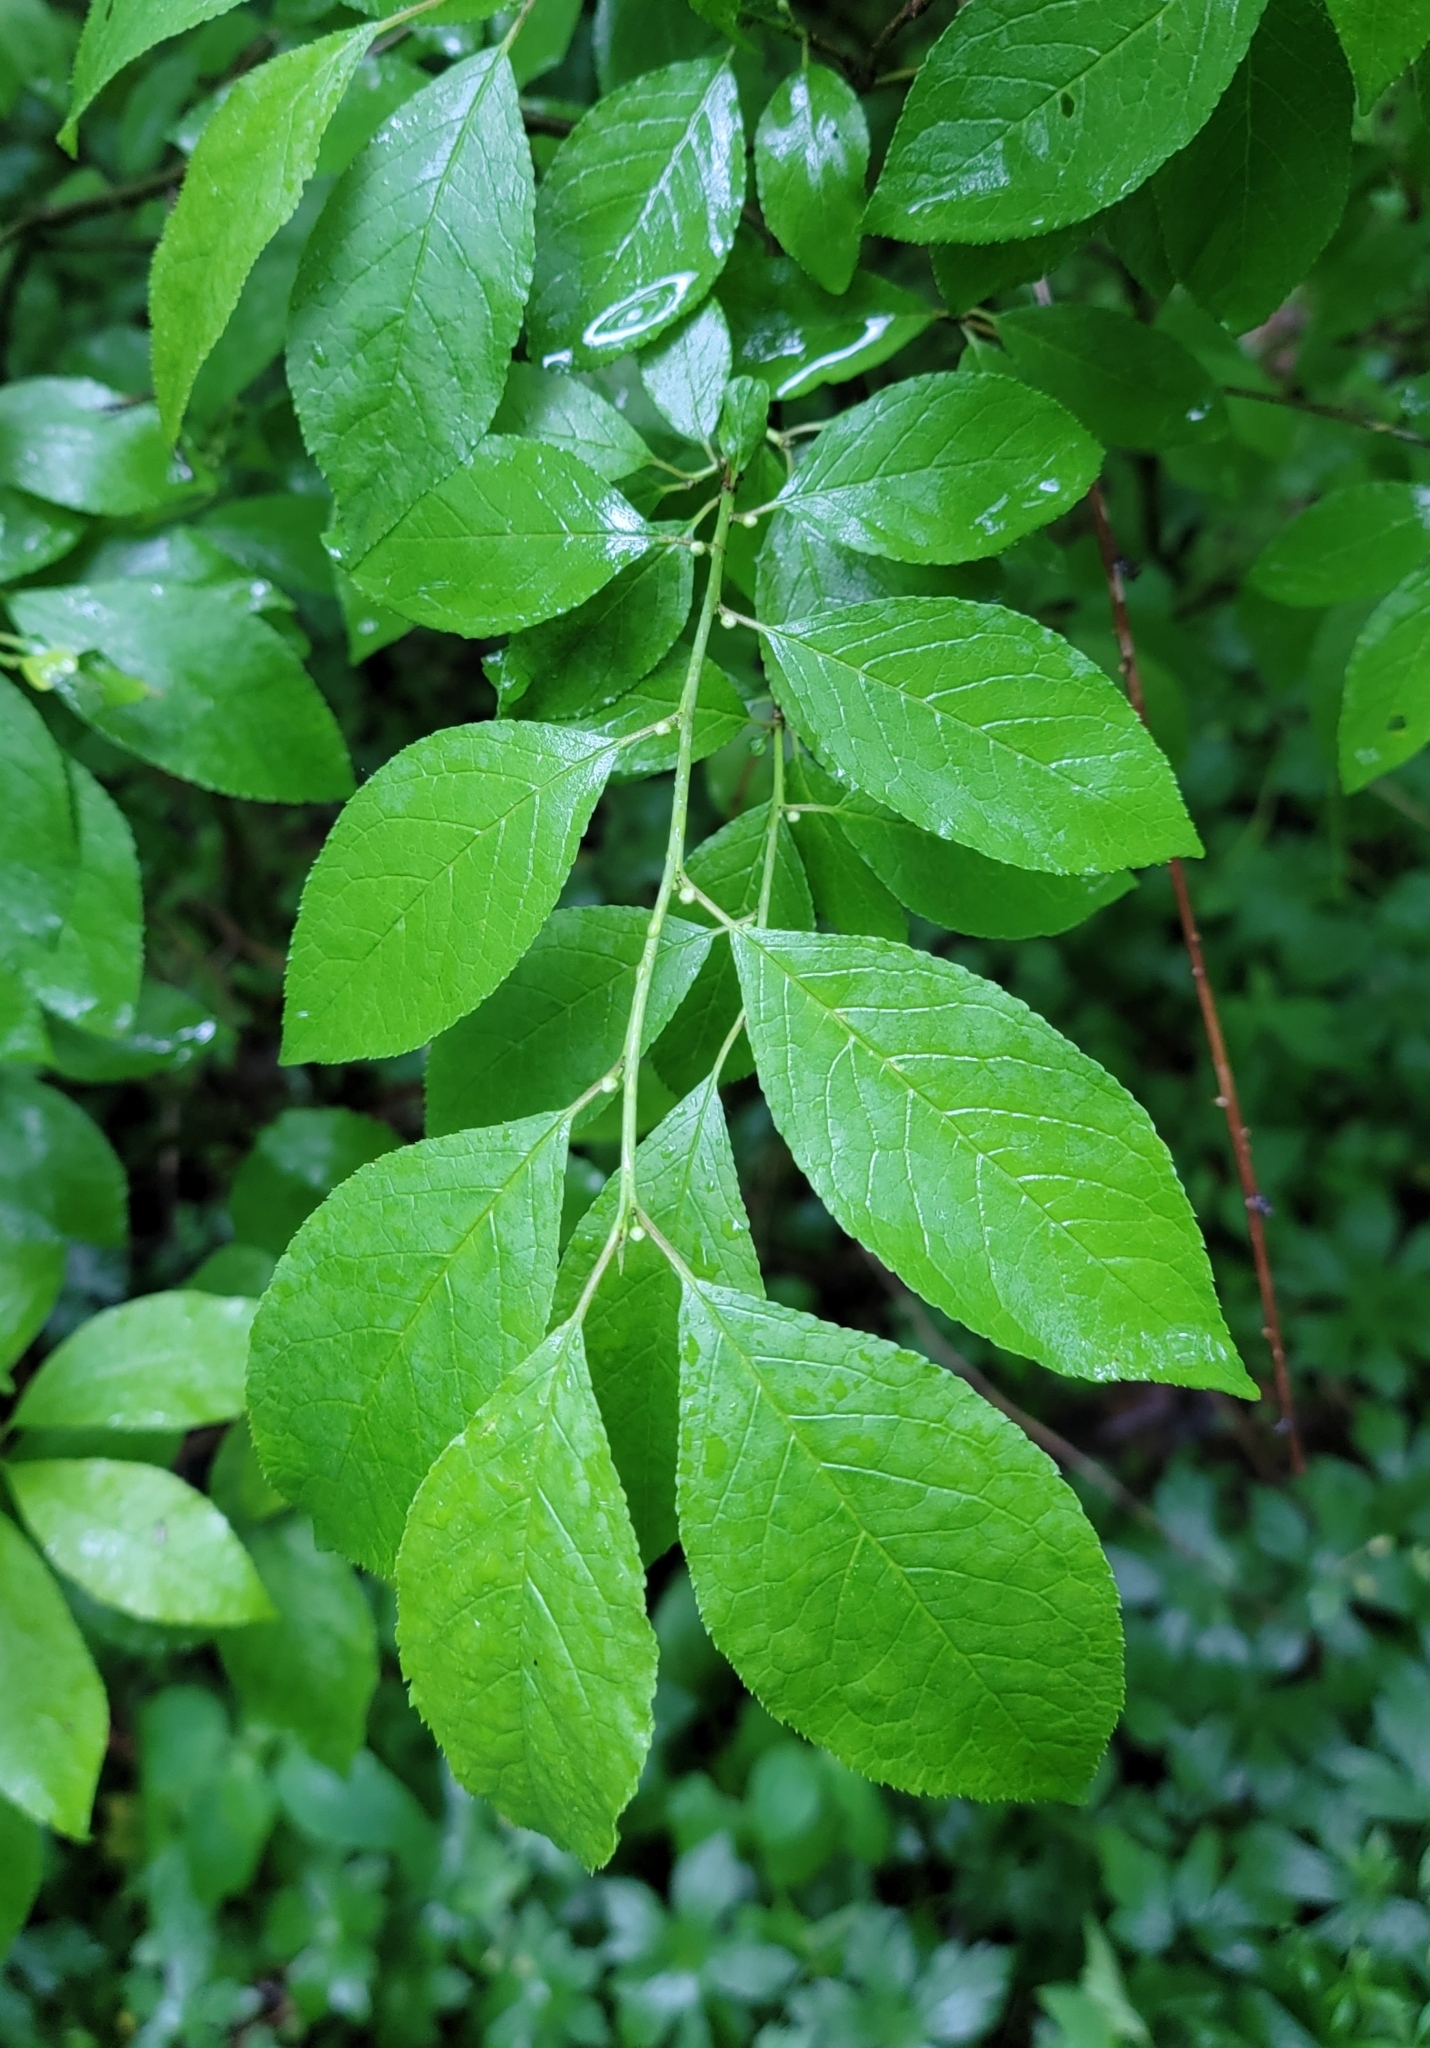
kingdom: Plantae
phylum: Tracheophyta
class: Magnoliopsida
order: Aquifoliales
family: Aquifoliaceae
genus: Ilex
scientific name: Ilex verticillata
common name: Virginia winterberry
